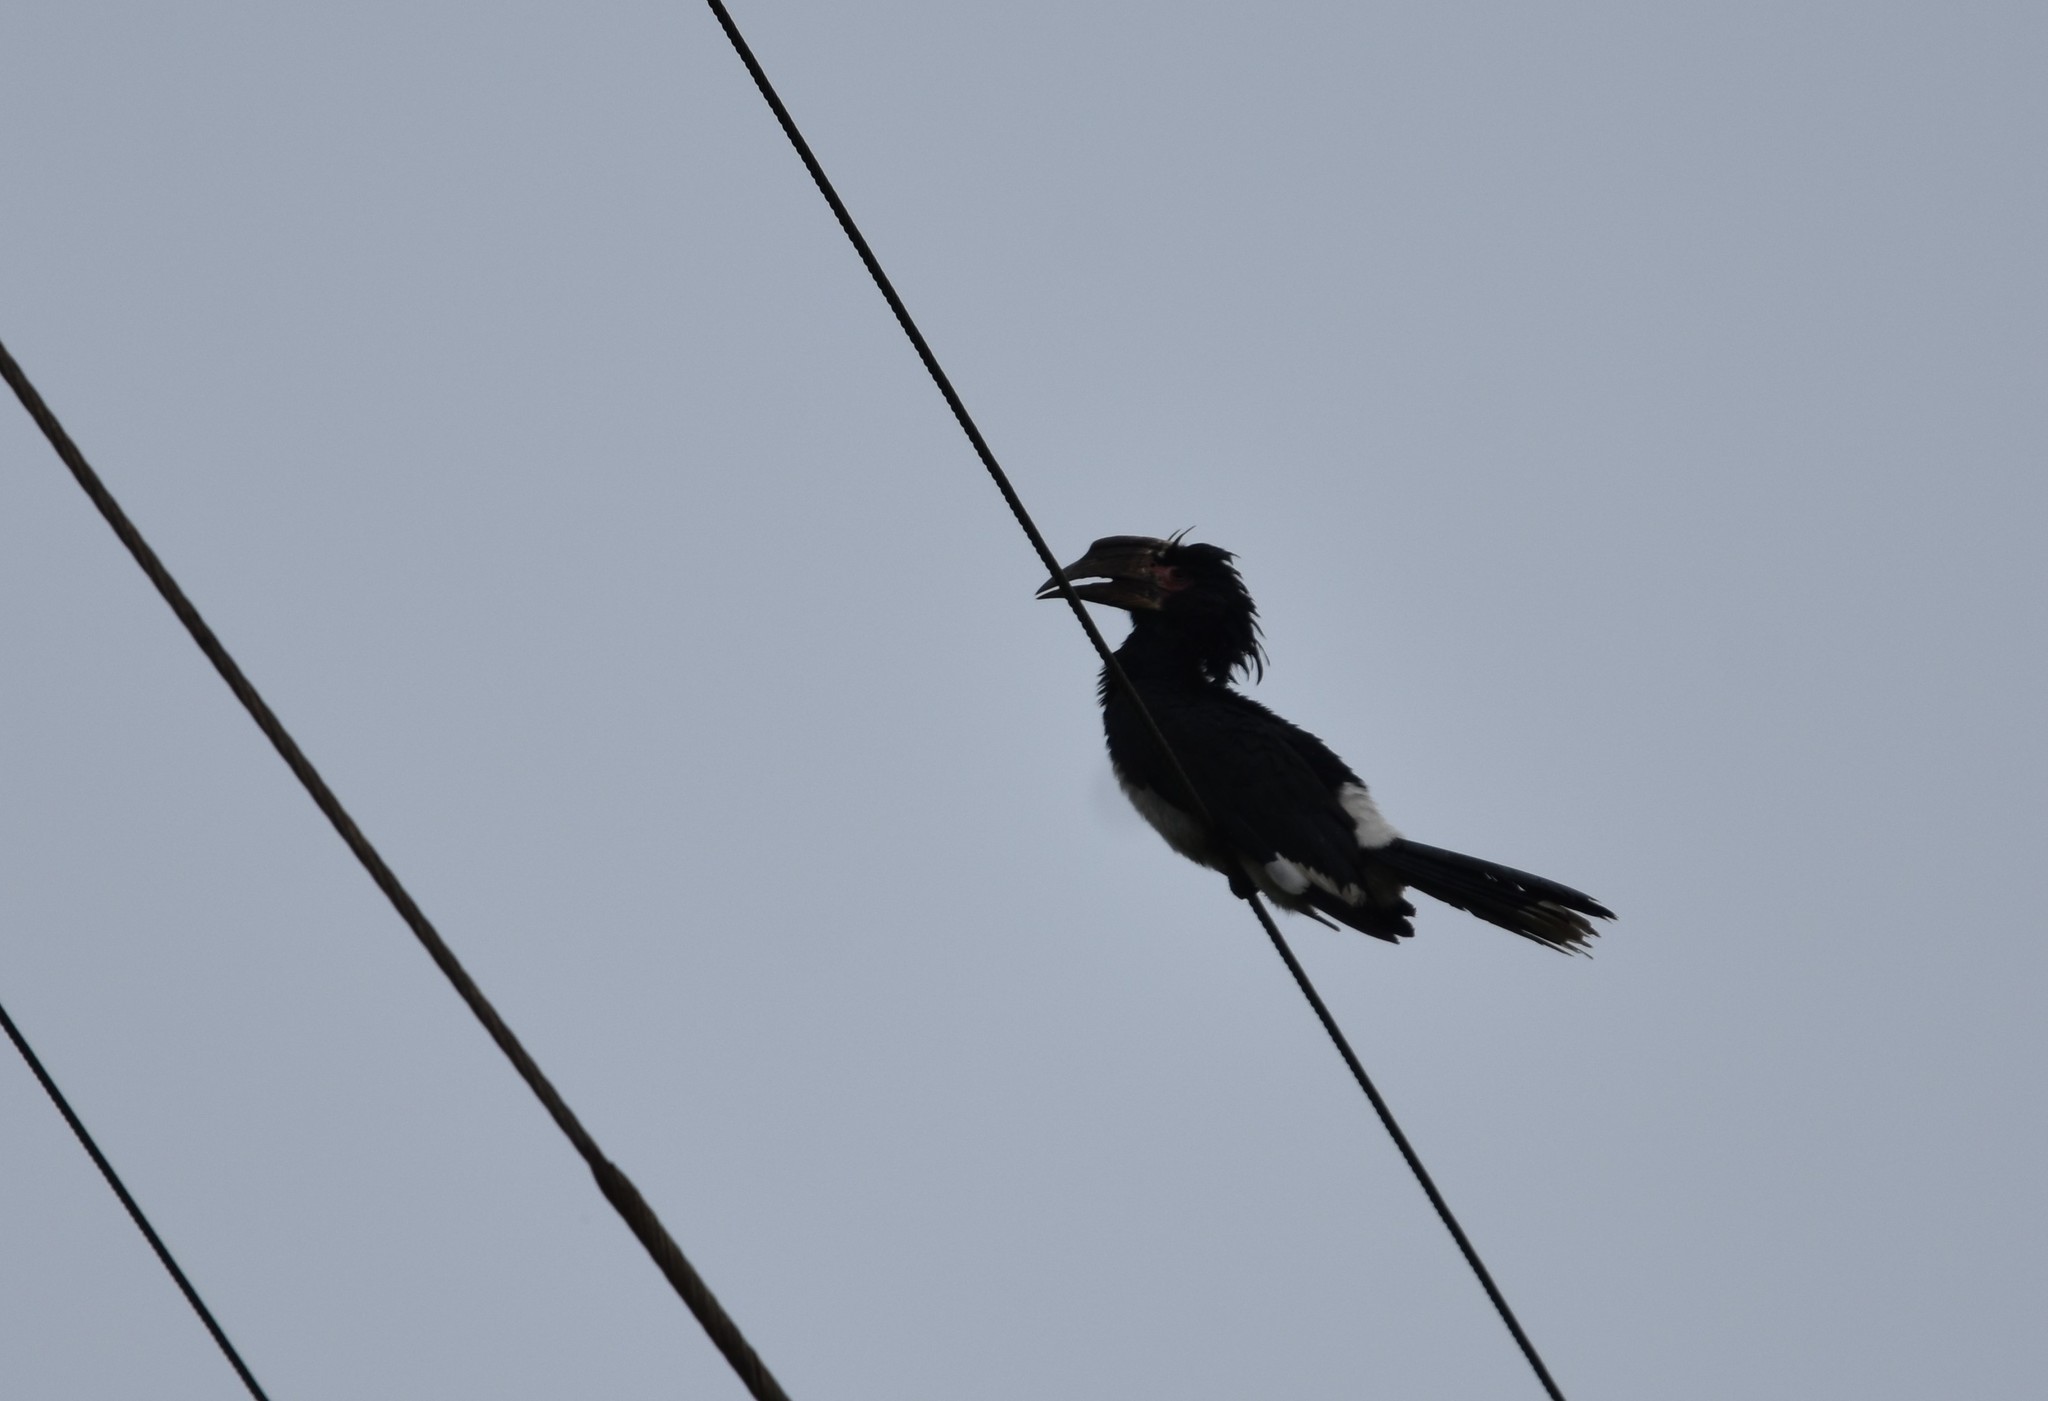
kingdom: Animalia
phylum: Chordata
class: Aves
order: Bucerotiformes
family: Bucerotidae
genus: Bycanistes
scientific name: Bycanistes bucinator
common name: Trumpeter hornbill
